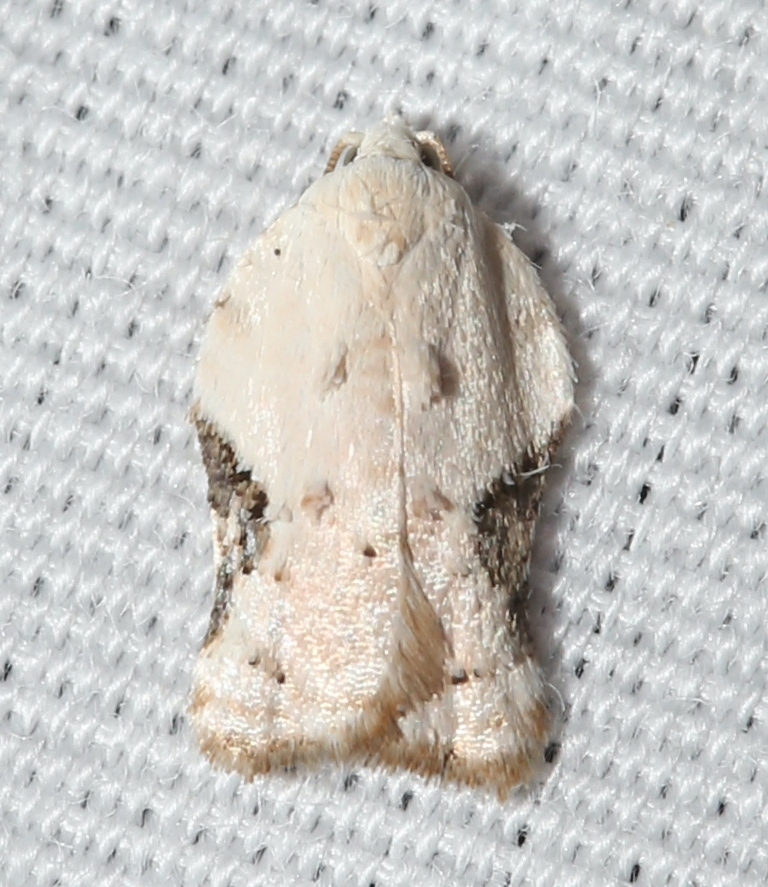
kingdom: Animalia
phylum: Arthropoda
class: Insecta
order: Lepidoptera
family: Tortricidae
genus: Acleris
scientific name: Acleris subnivana
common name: Bent-winged acleris moth
